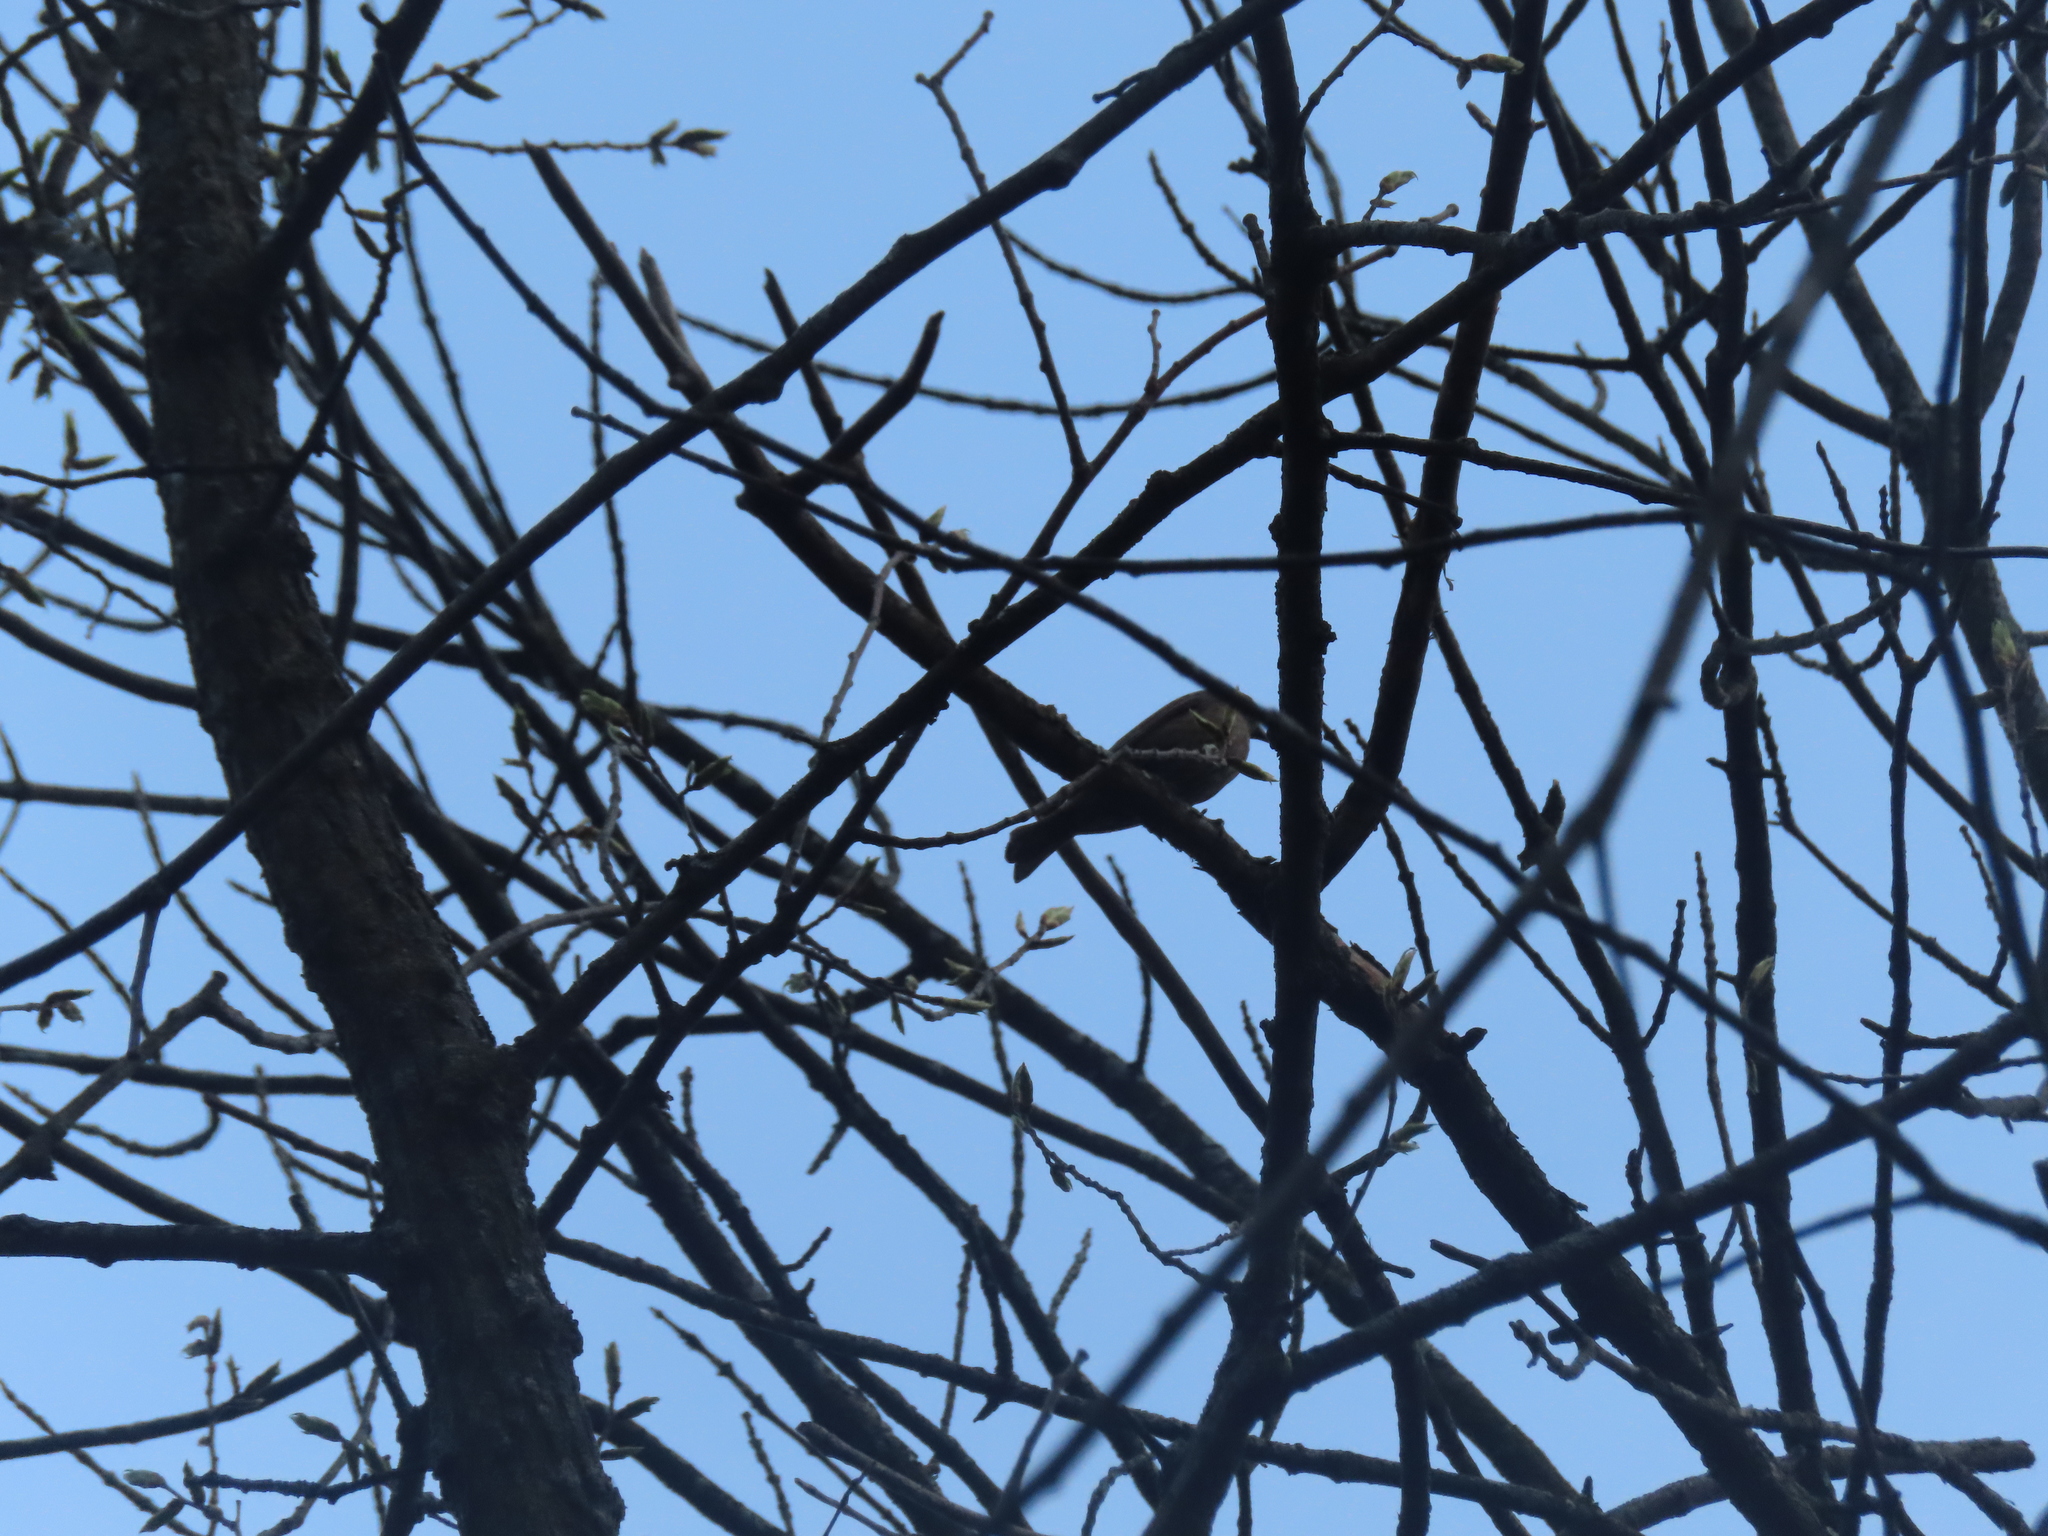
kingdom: Animalia
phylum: Chordata
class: Aves
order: Passeriformes
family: Icteridae
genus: Molothrus
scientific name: Molothrus ater
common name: Brown-headed cowbird
